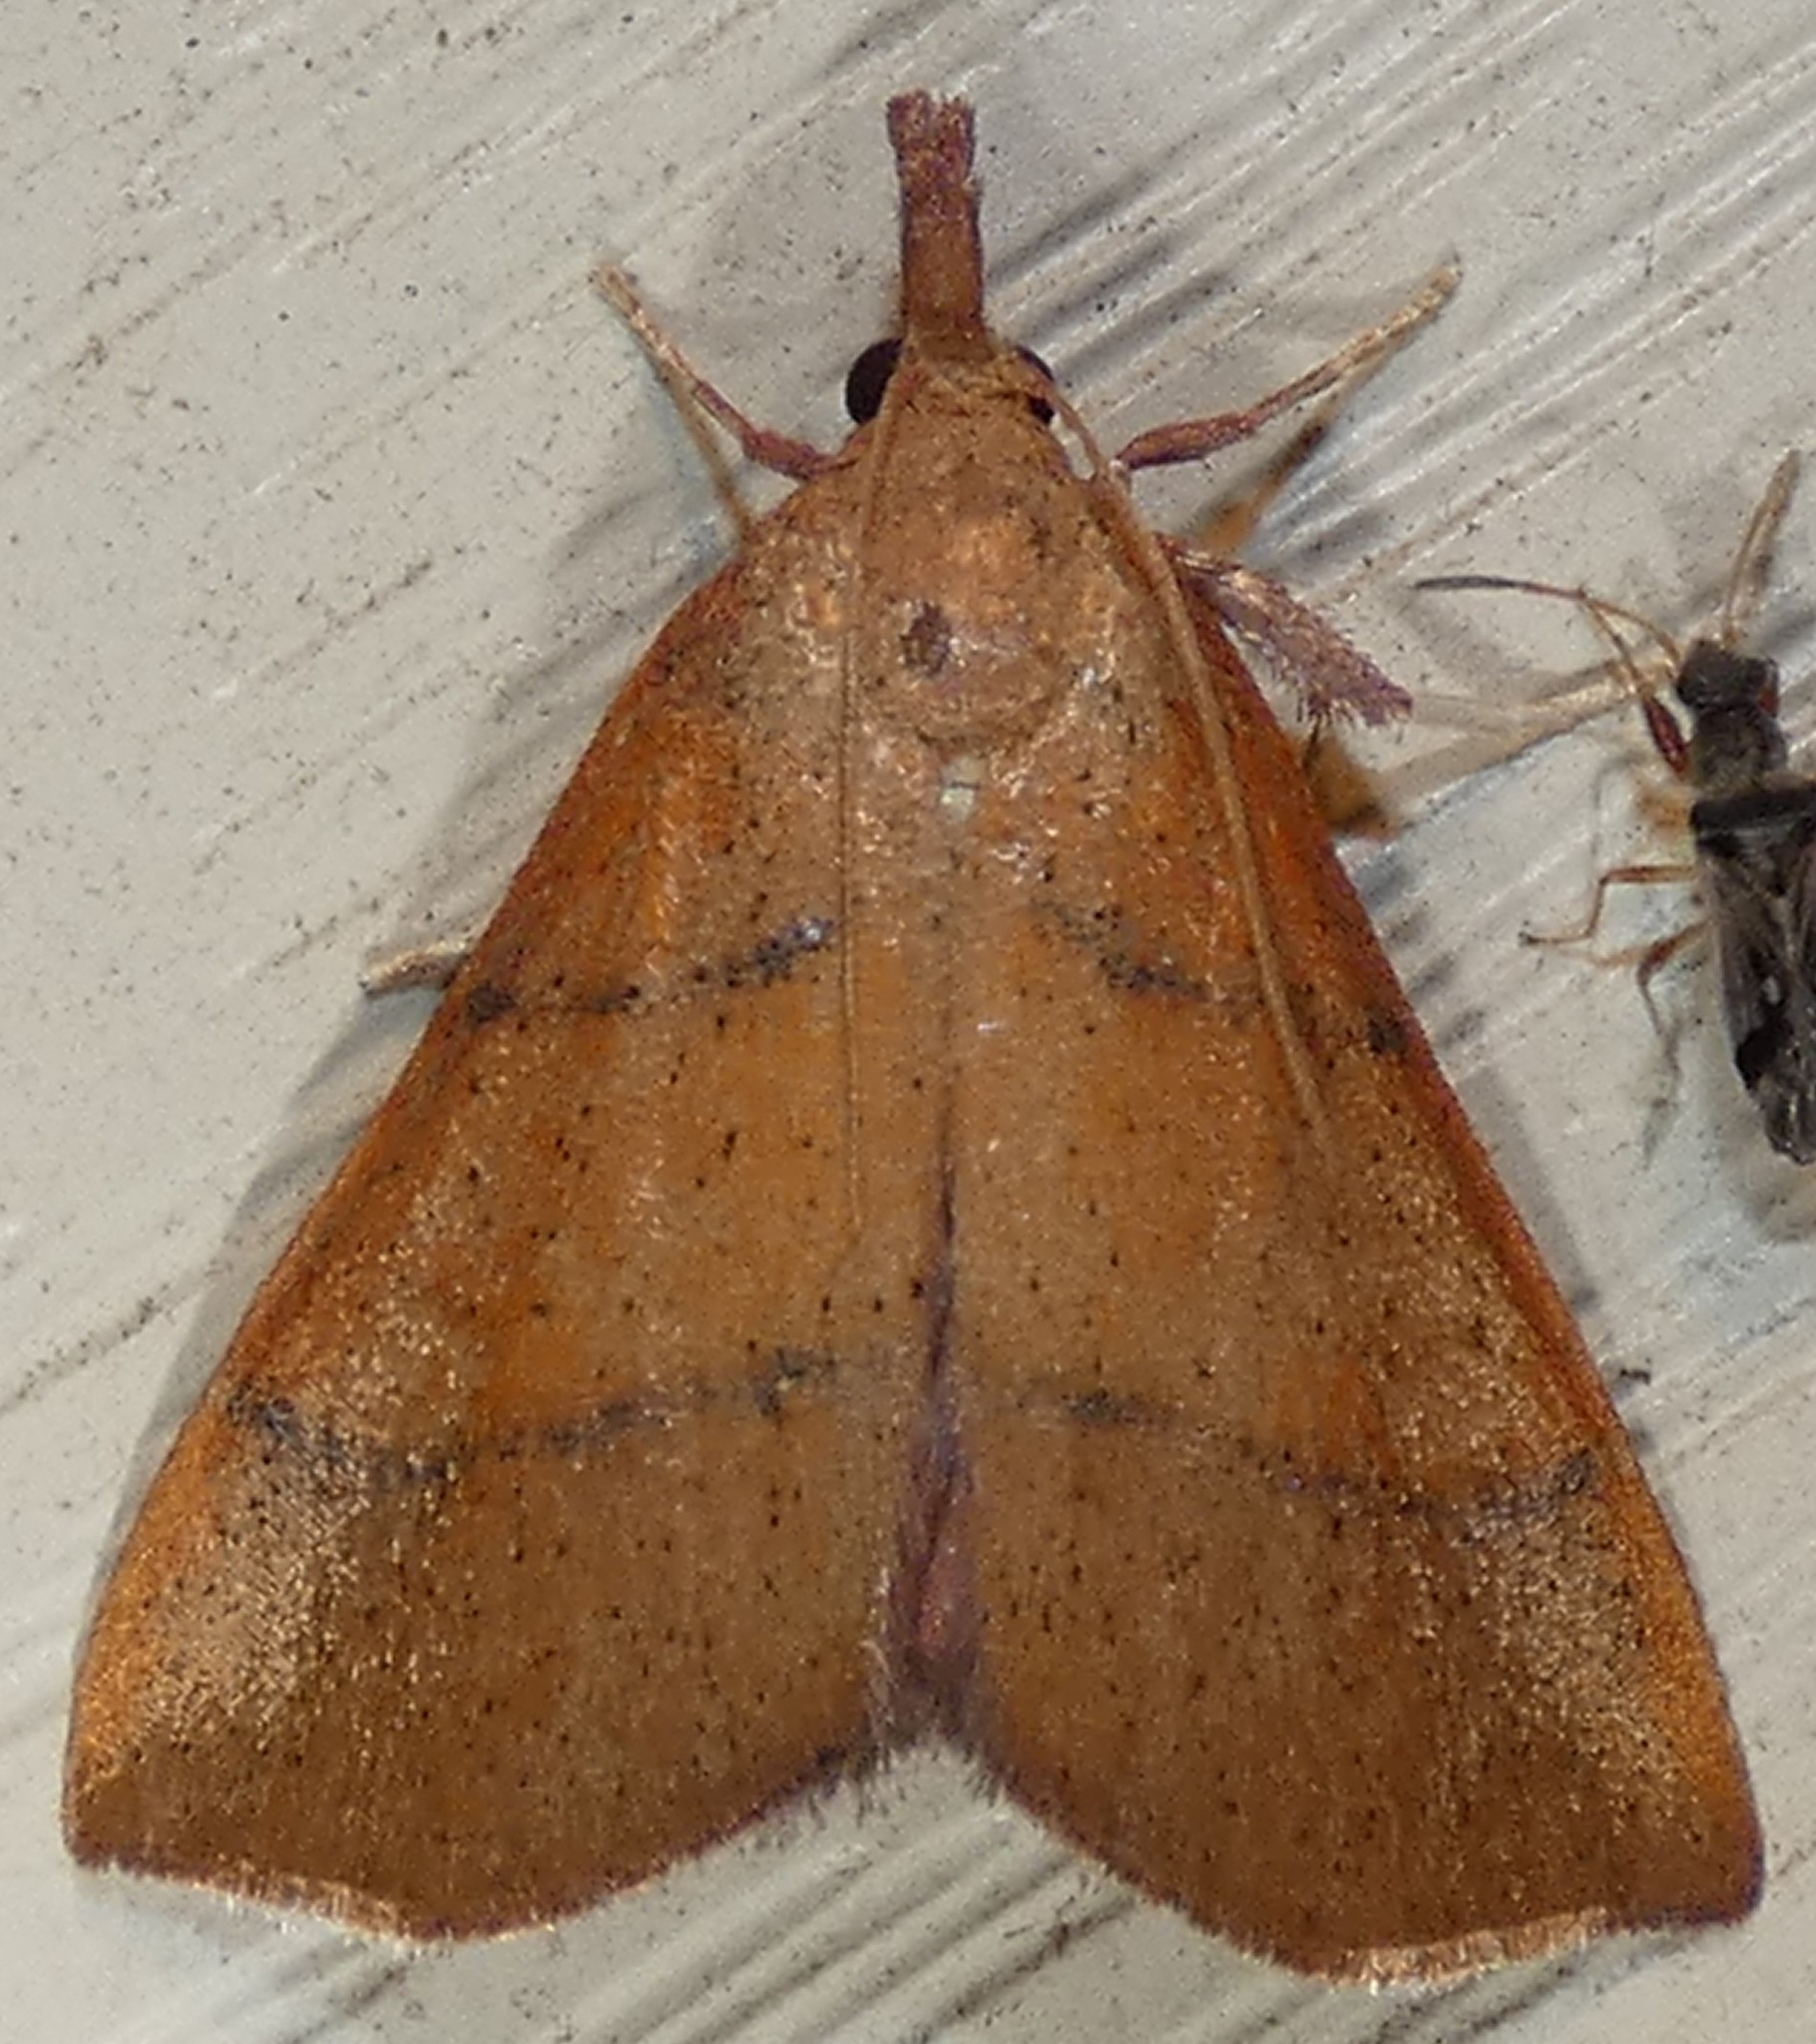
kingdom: Animalia
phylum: Arthropoda
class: Insecta
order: Lepidoptera
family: Pyralidae
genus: Lepidomys
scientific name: Lepidomys irrenosa
